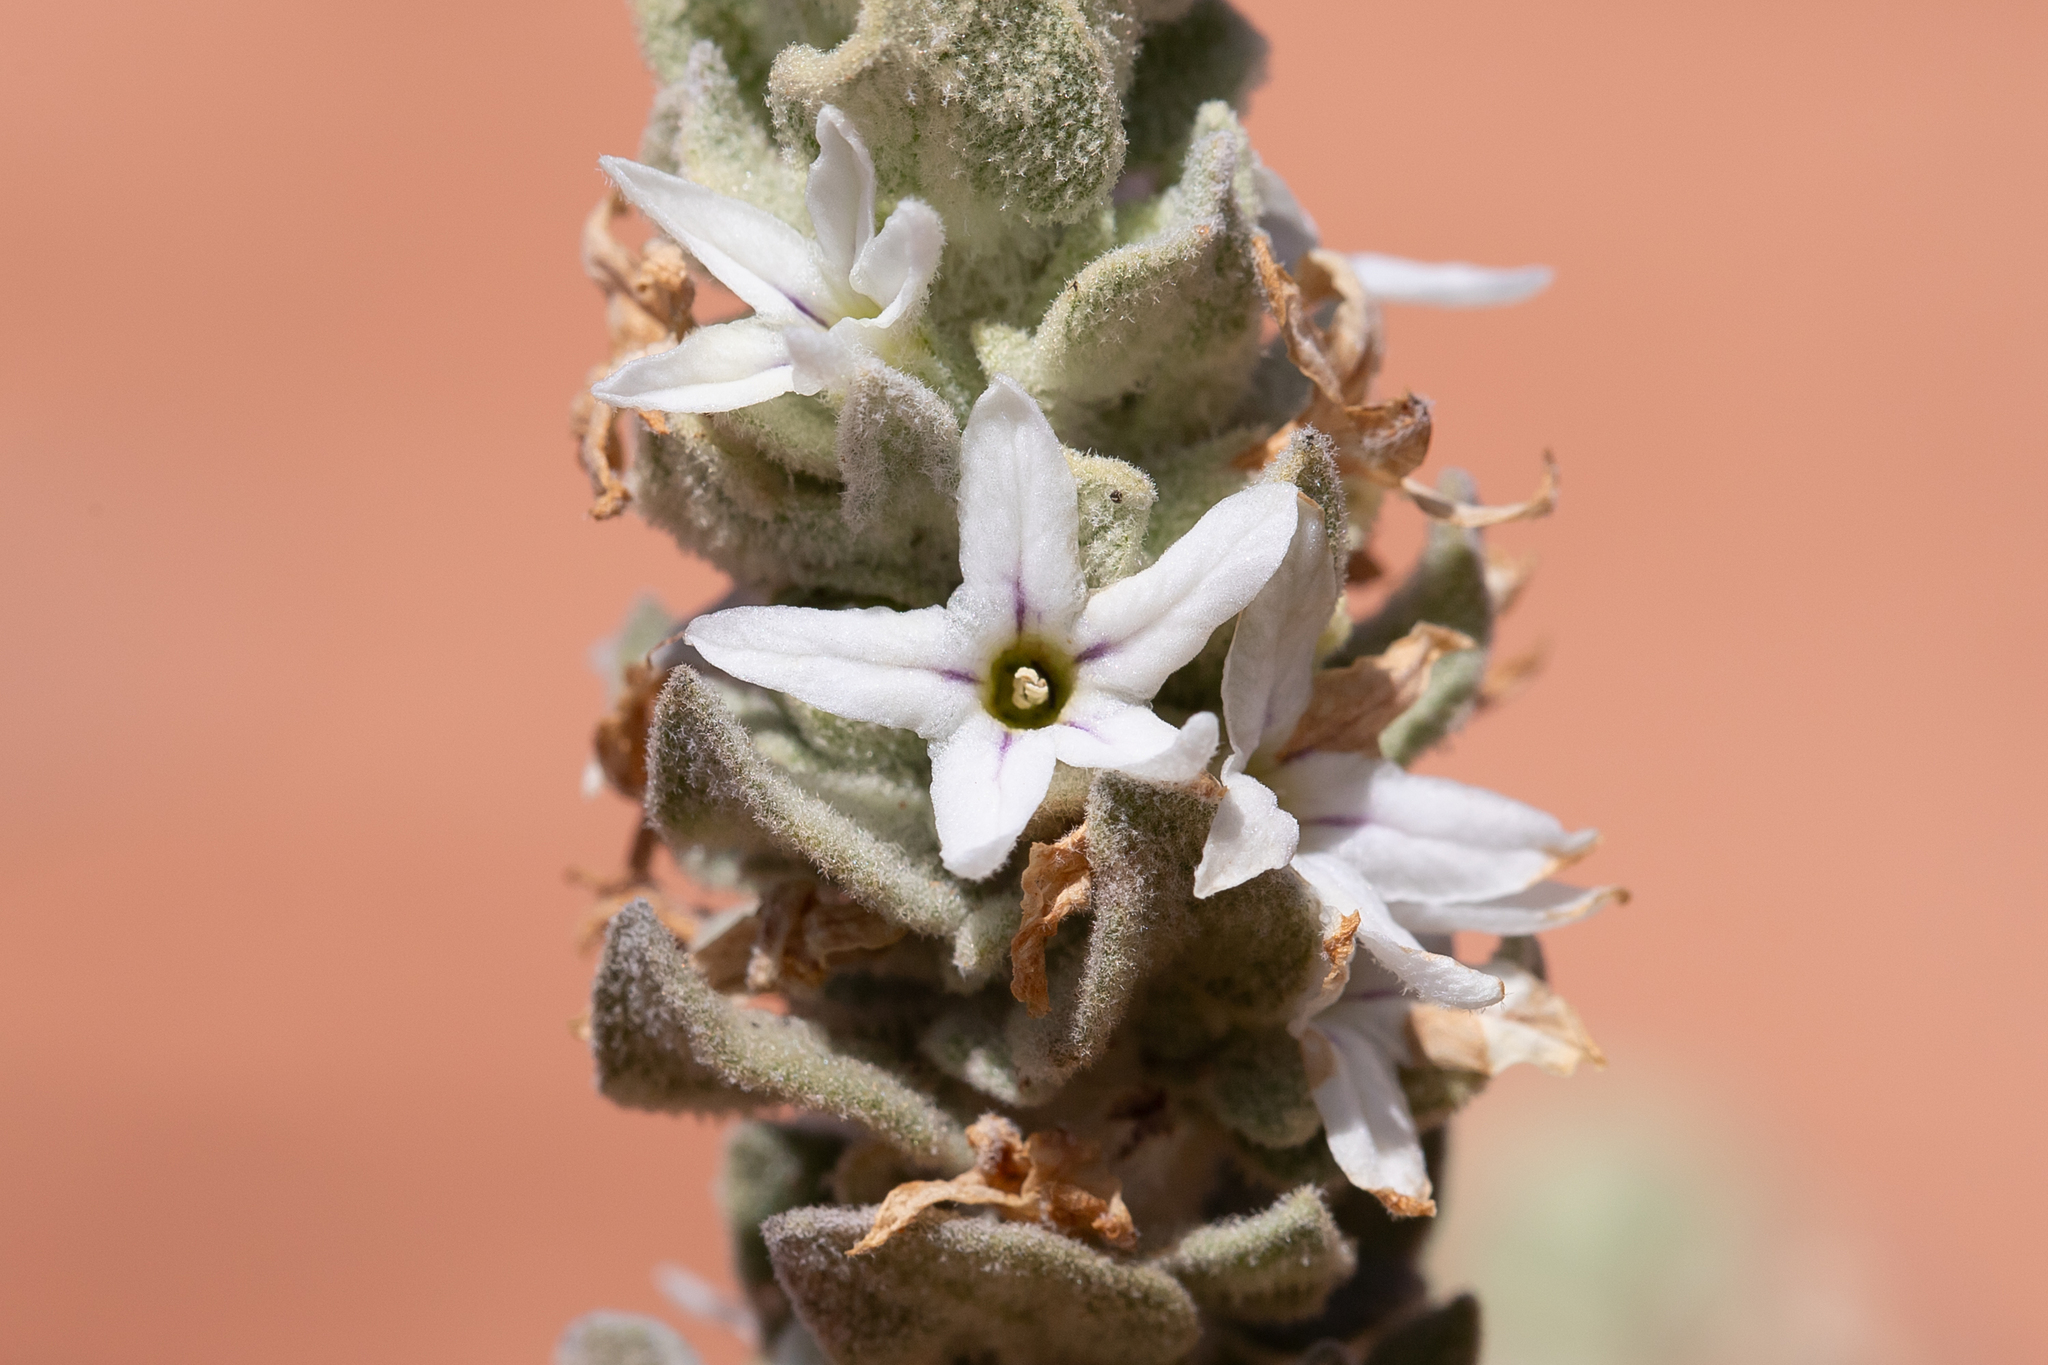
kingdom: Plantae
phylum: Tracheophyta
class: Magnoliopsida
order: Solanales
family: Solanaceae
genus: Grammosolen
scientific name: Grammosolen dixonii
